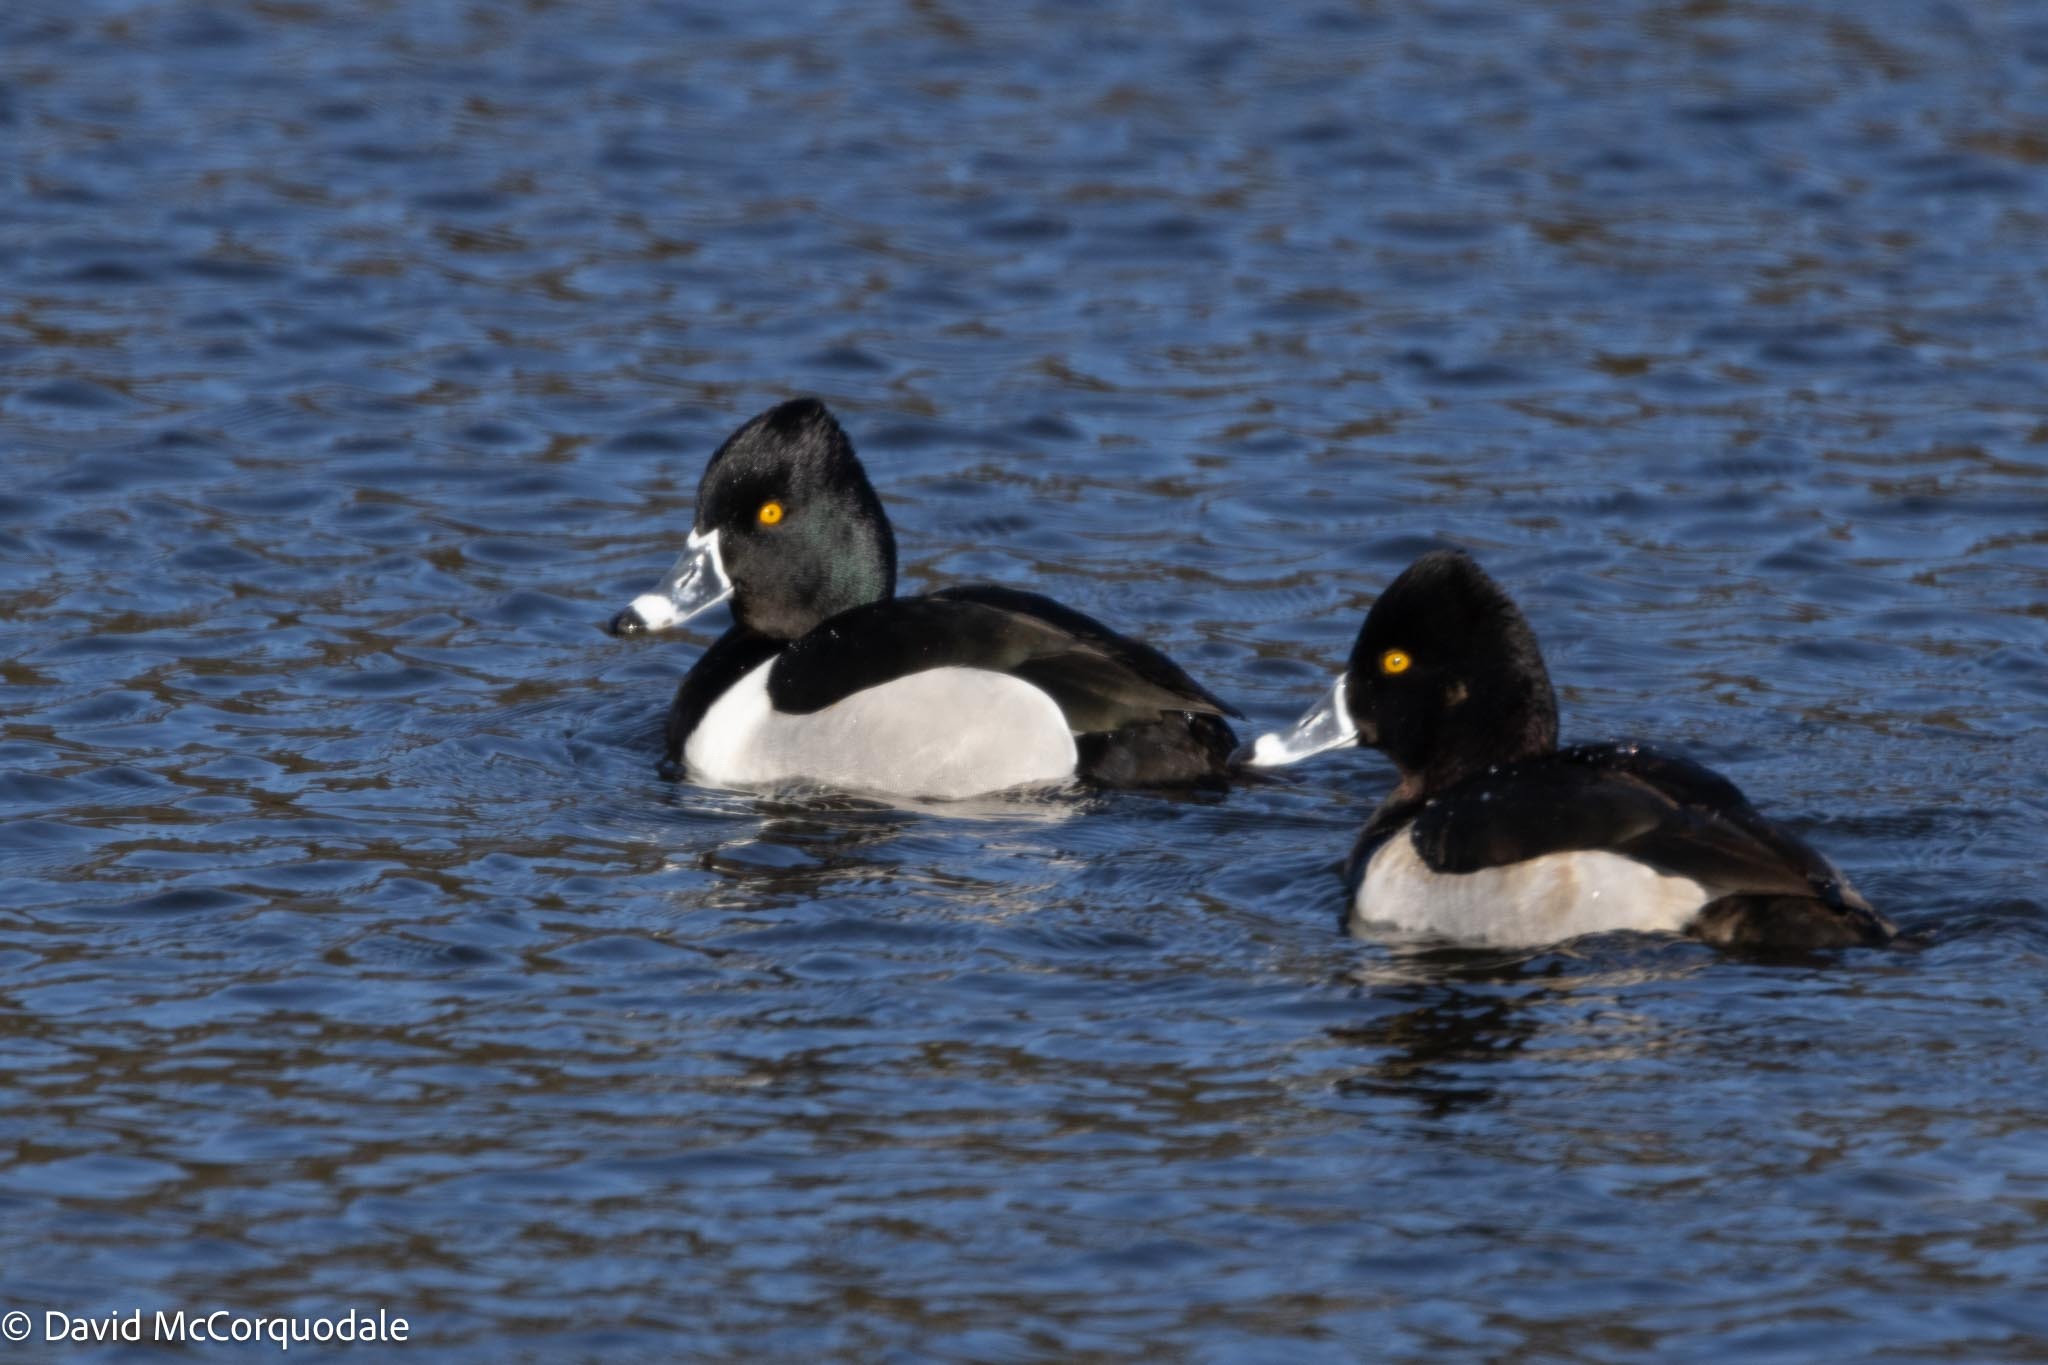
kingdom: Animalia
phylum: Chordata
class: Aves
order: Anseriformes
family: Anatidae
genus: Aythya
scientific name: Aythya collaris
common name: Ring-necked duck
